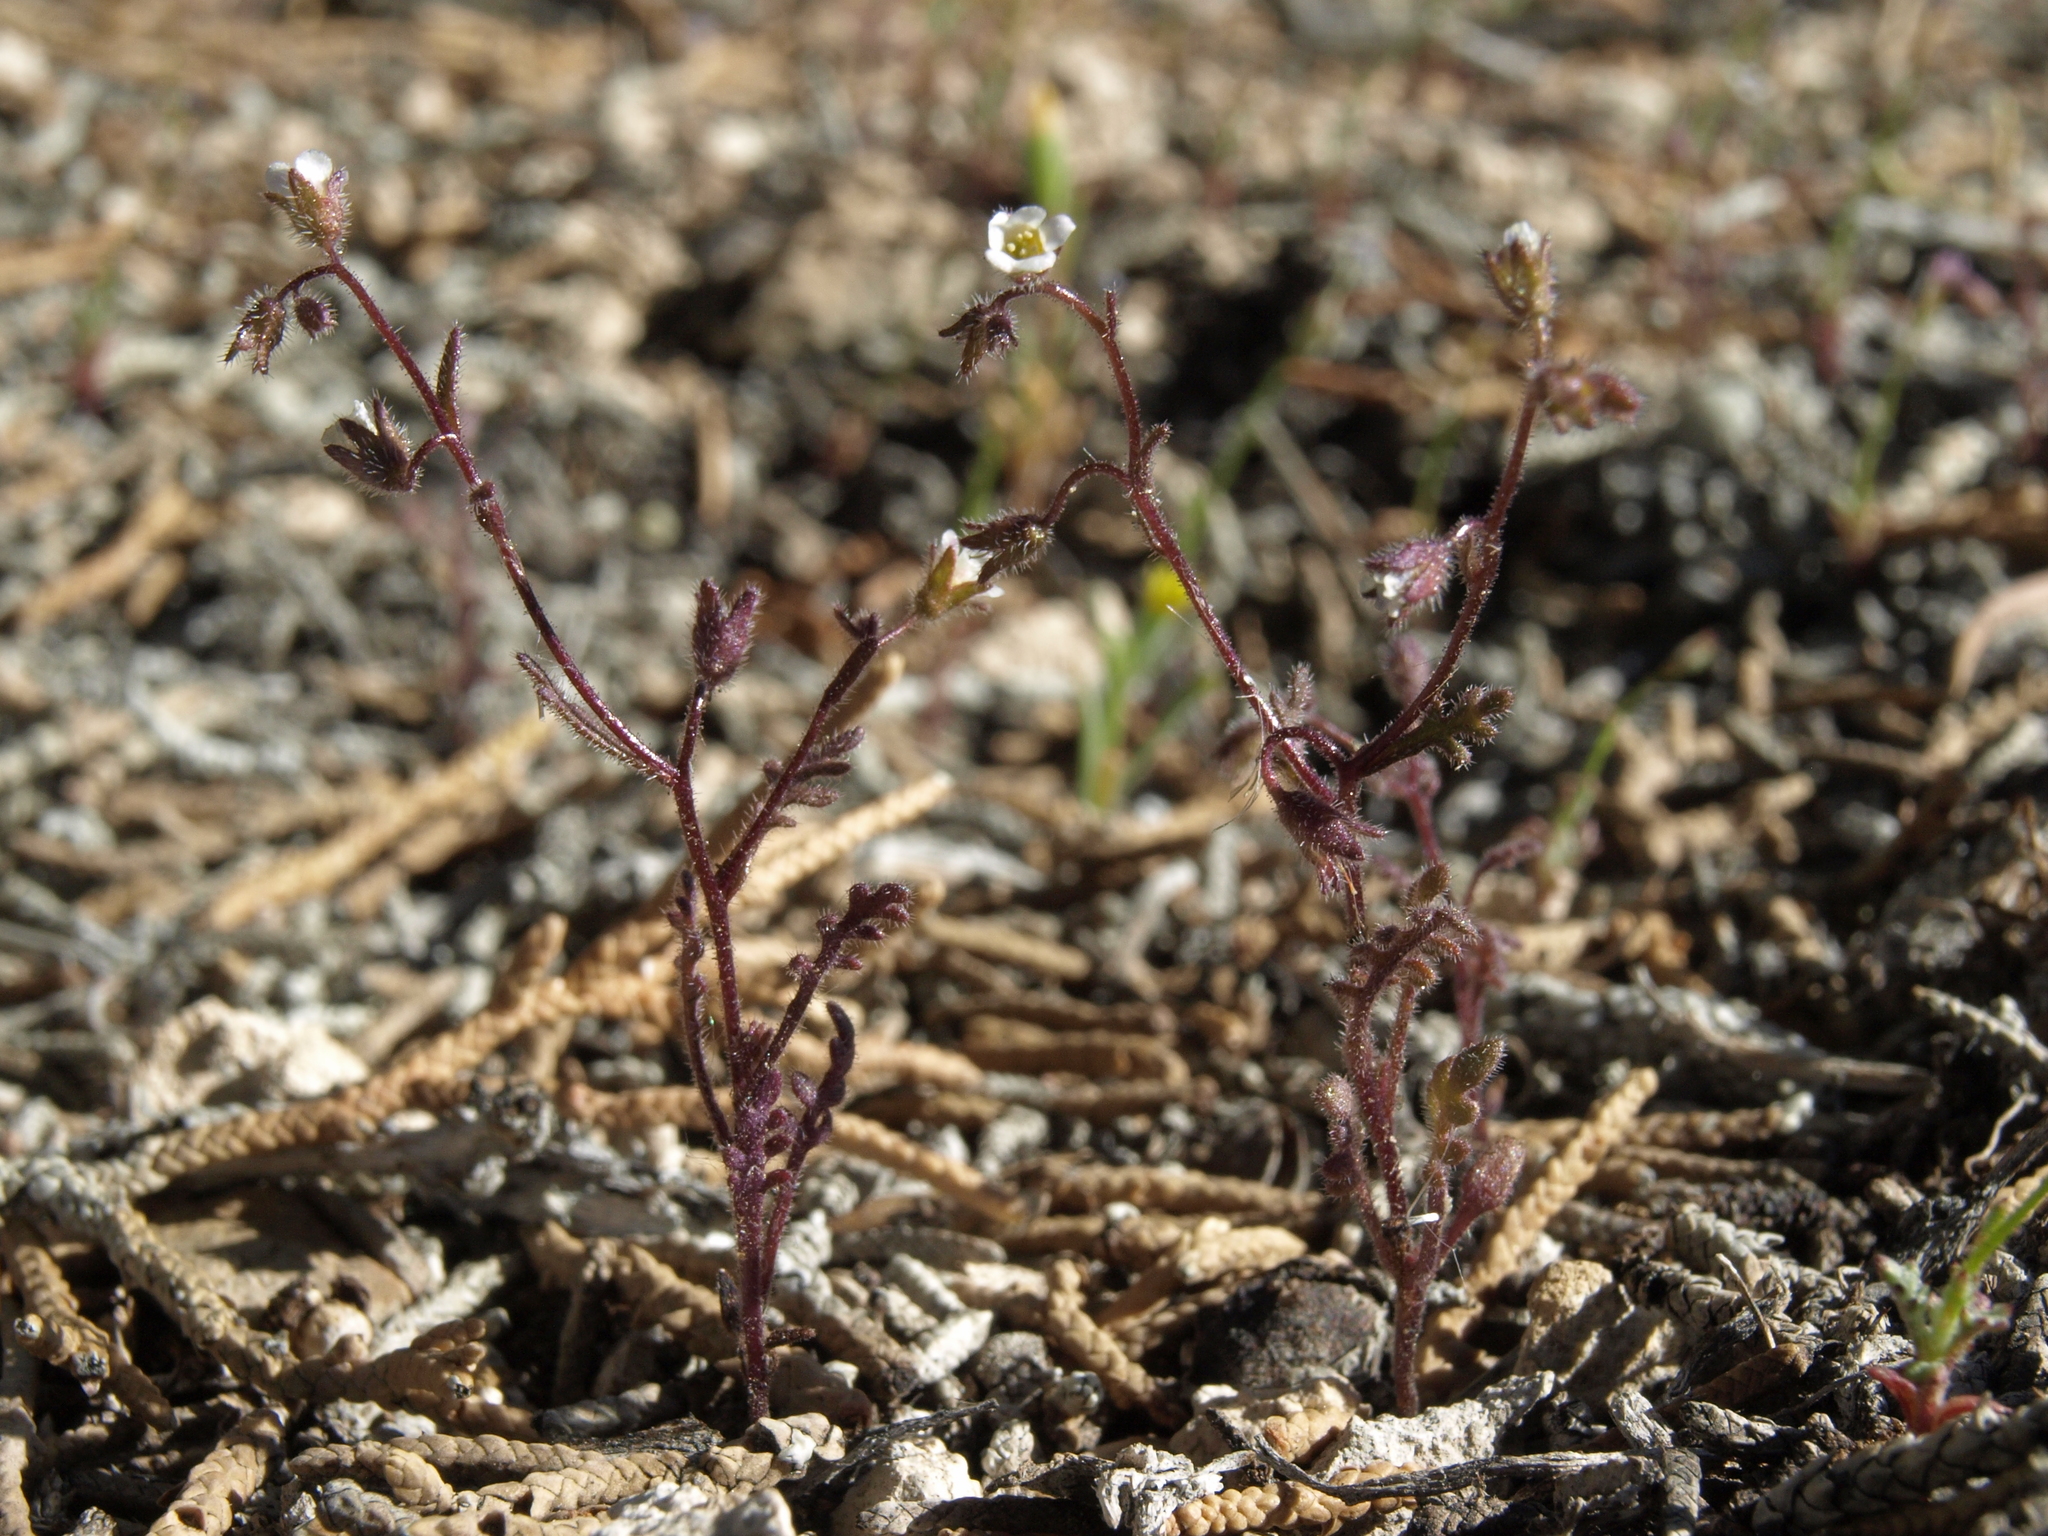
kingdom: Plantae
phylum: Tracheophyta
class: Magnoliopsida
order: Boraginales
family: Hydrophyllaceae
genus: Eucrypta
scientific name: Eucrypta micrantha
